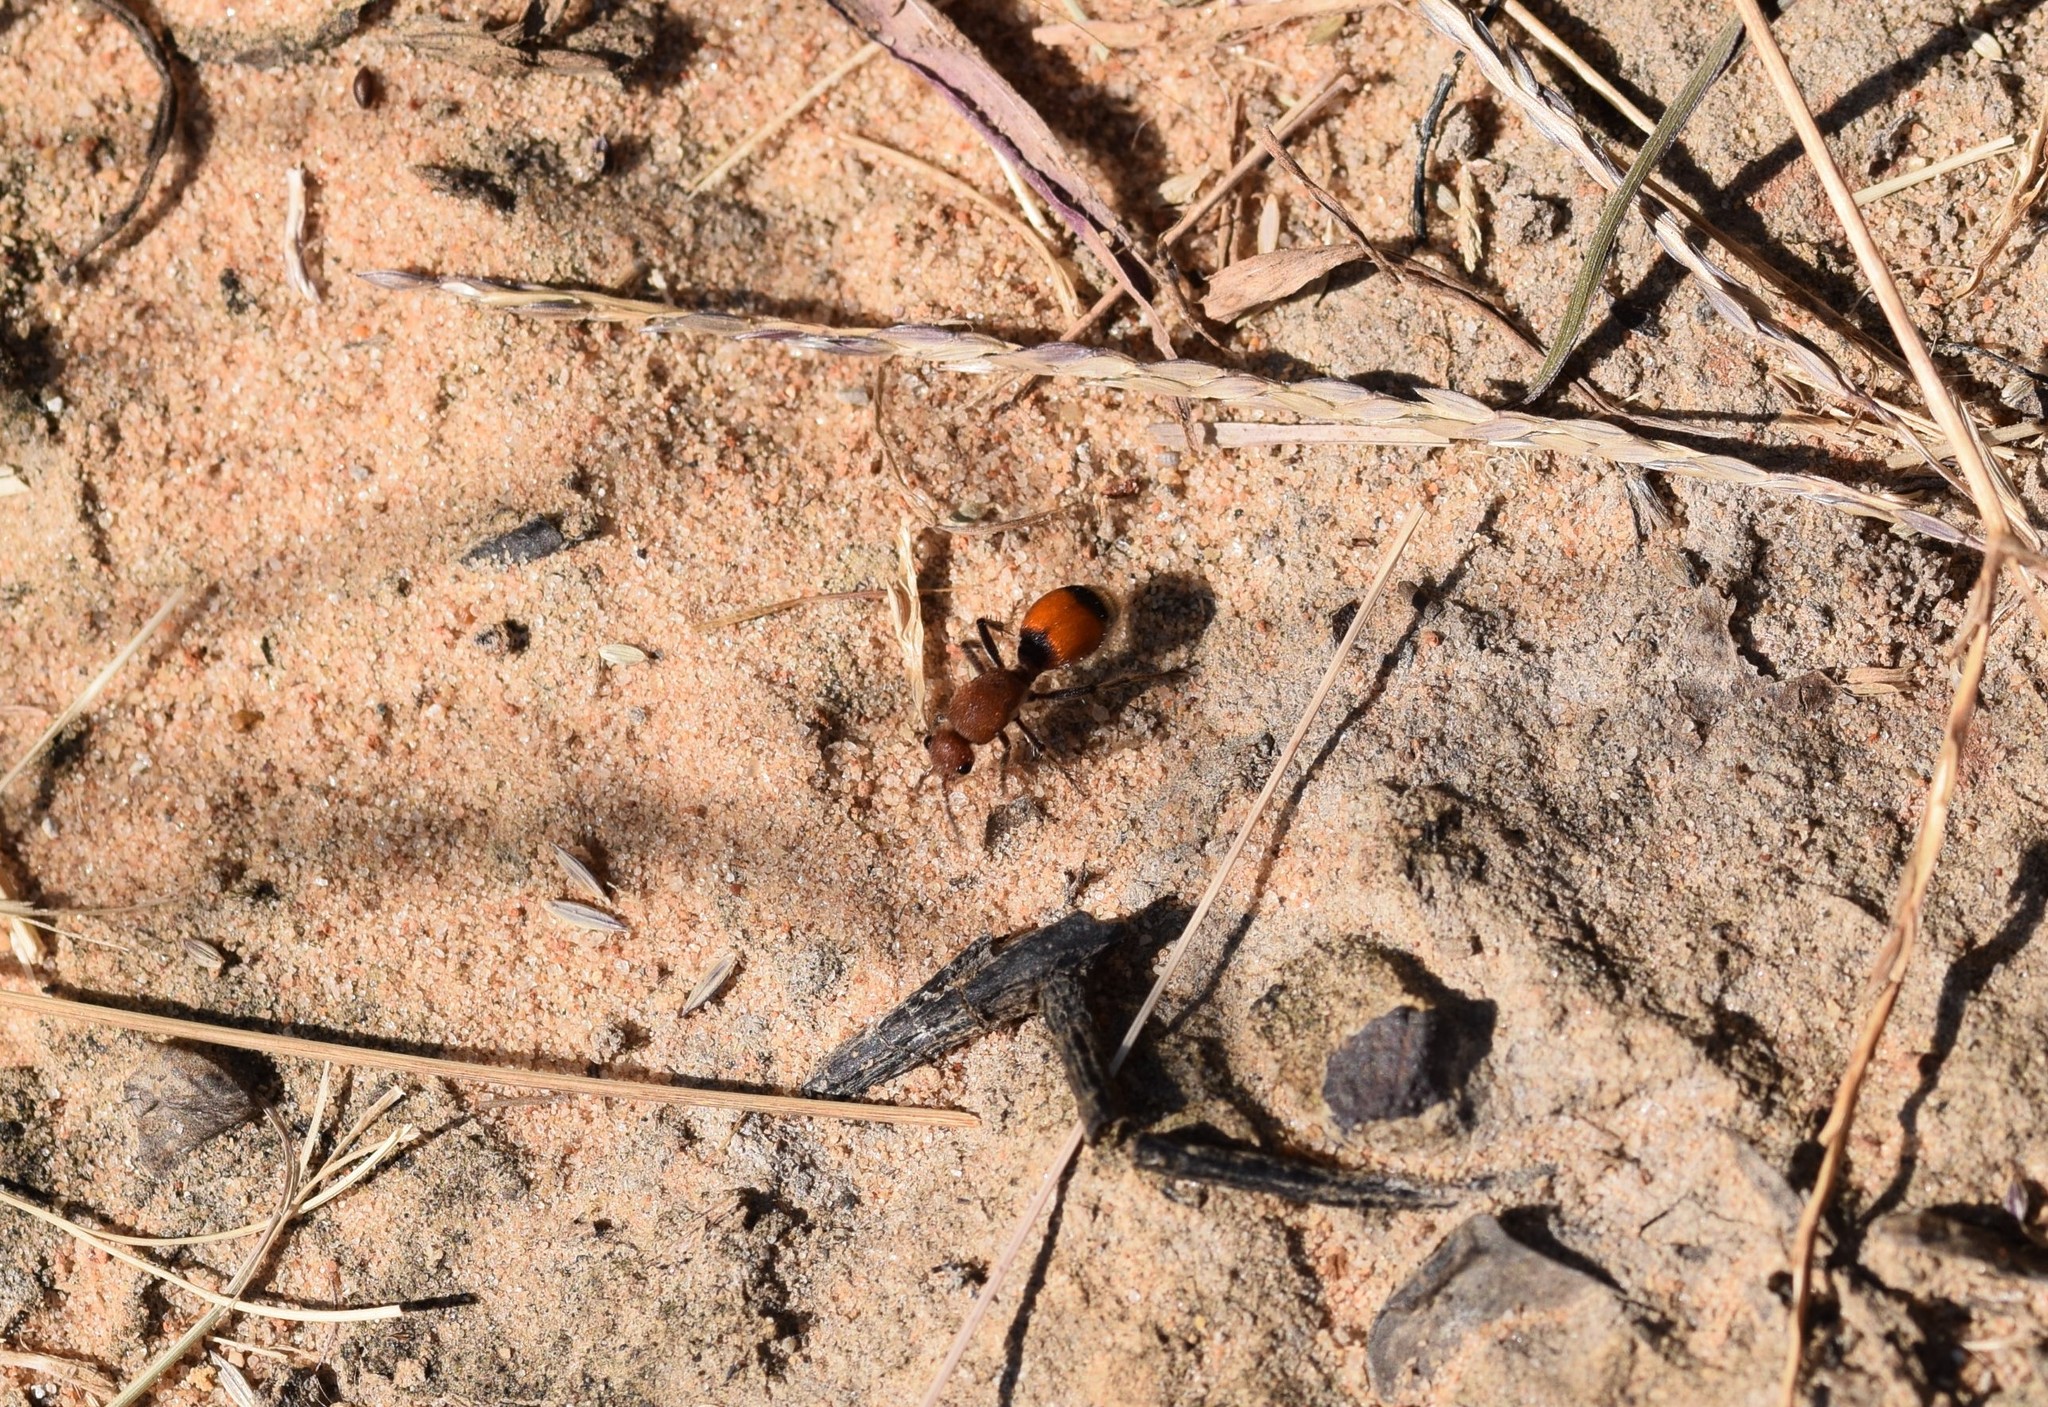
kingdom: Animalia
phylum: Arthropoda
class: Insecta
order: Hymenoptera
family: Mutillidae
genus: Dasymutilla
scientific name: Dasymutilla
